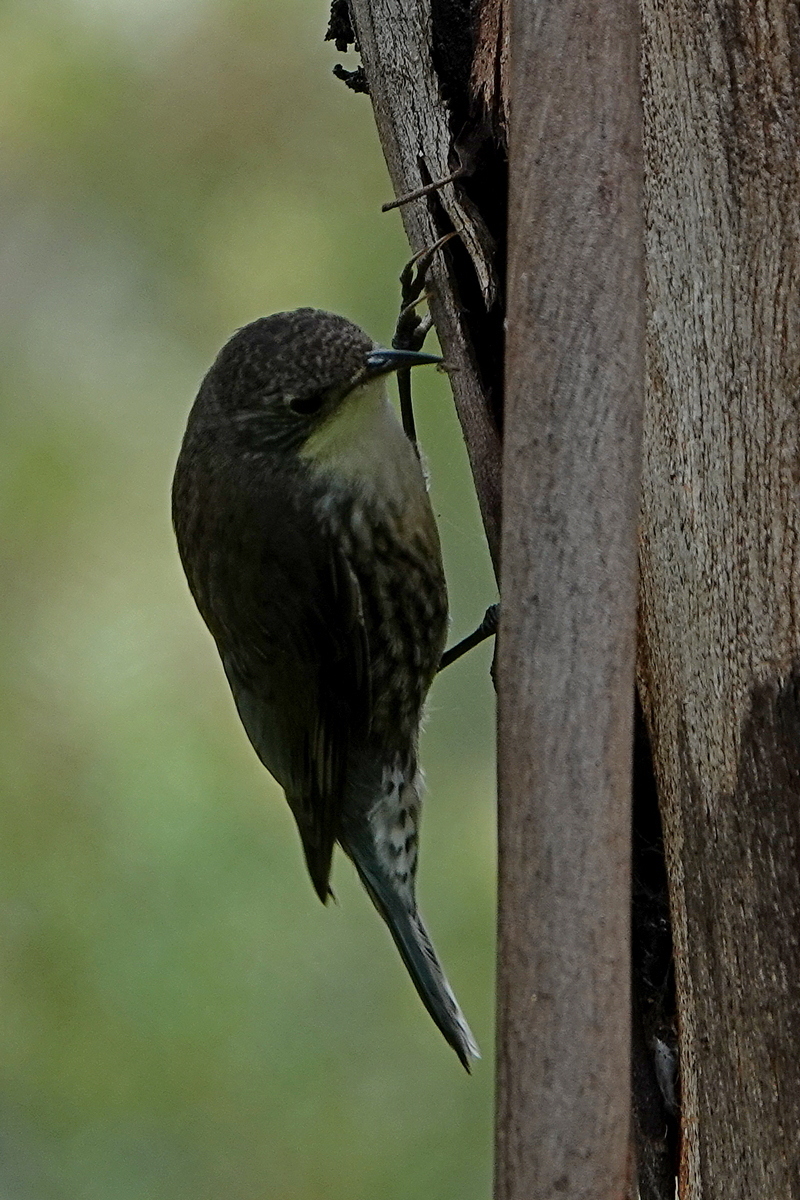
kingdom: Animalia
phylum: Chordata
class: Aves
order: Passeriformes
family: Climacteridae
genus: Cormobates
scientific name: Cormobates leucophaea
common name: White-throated treecreeper
